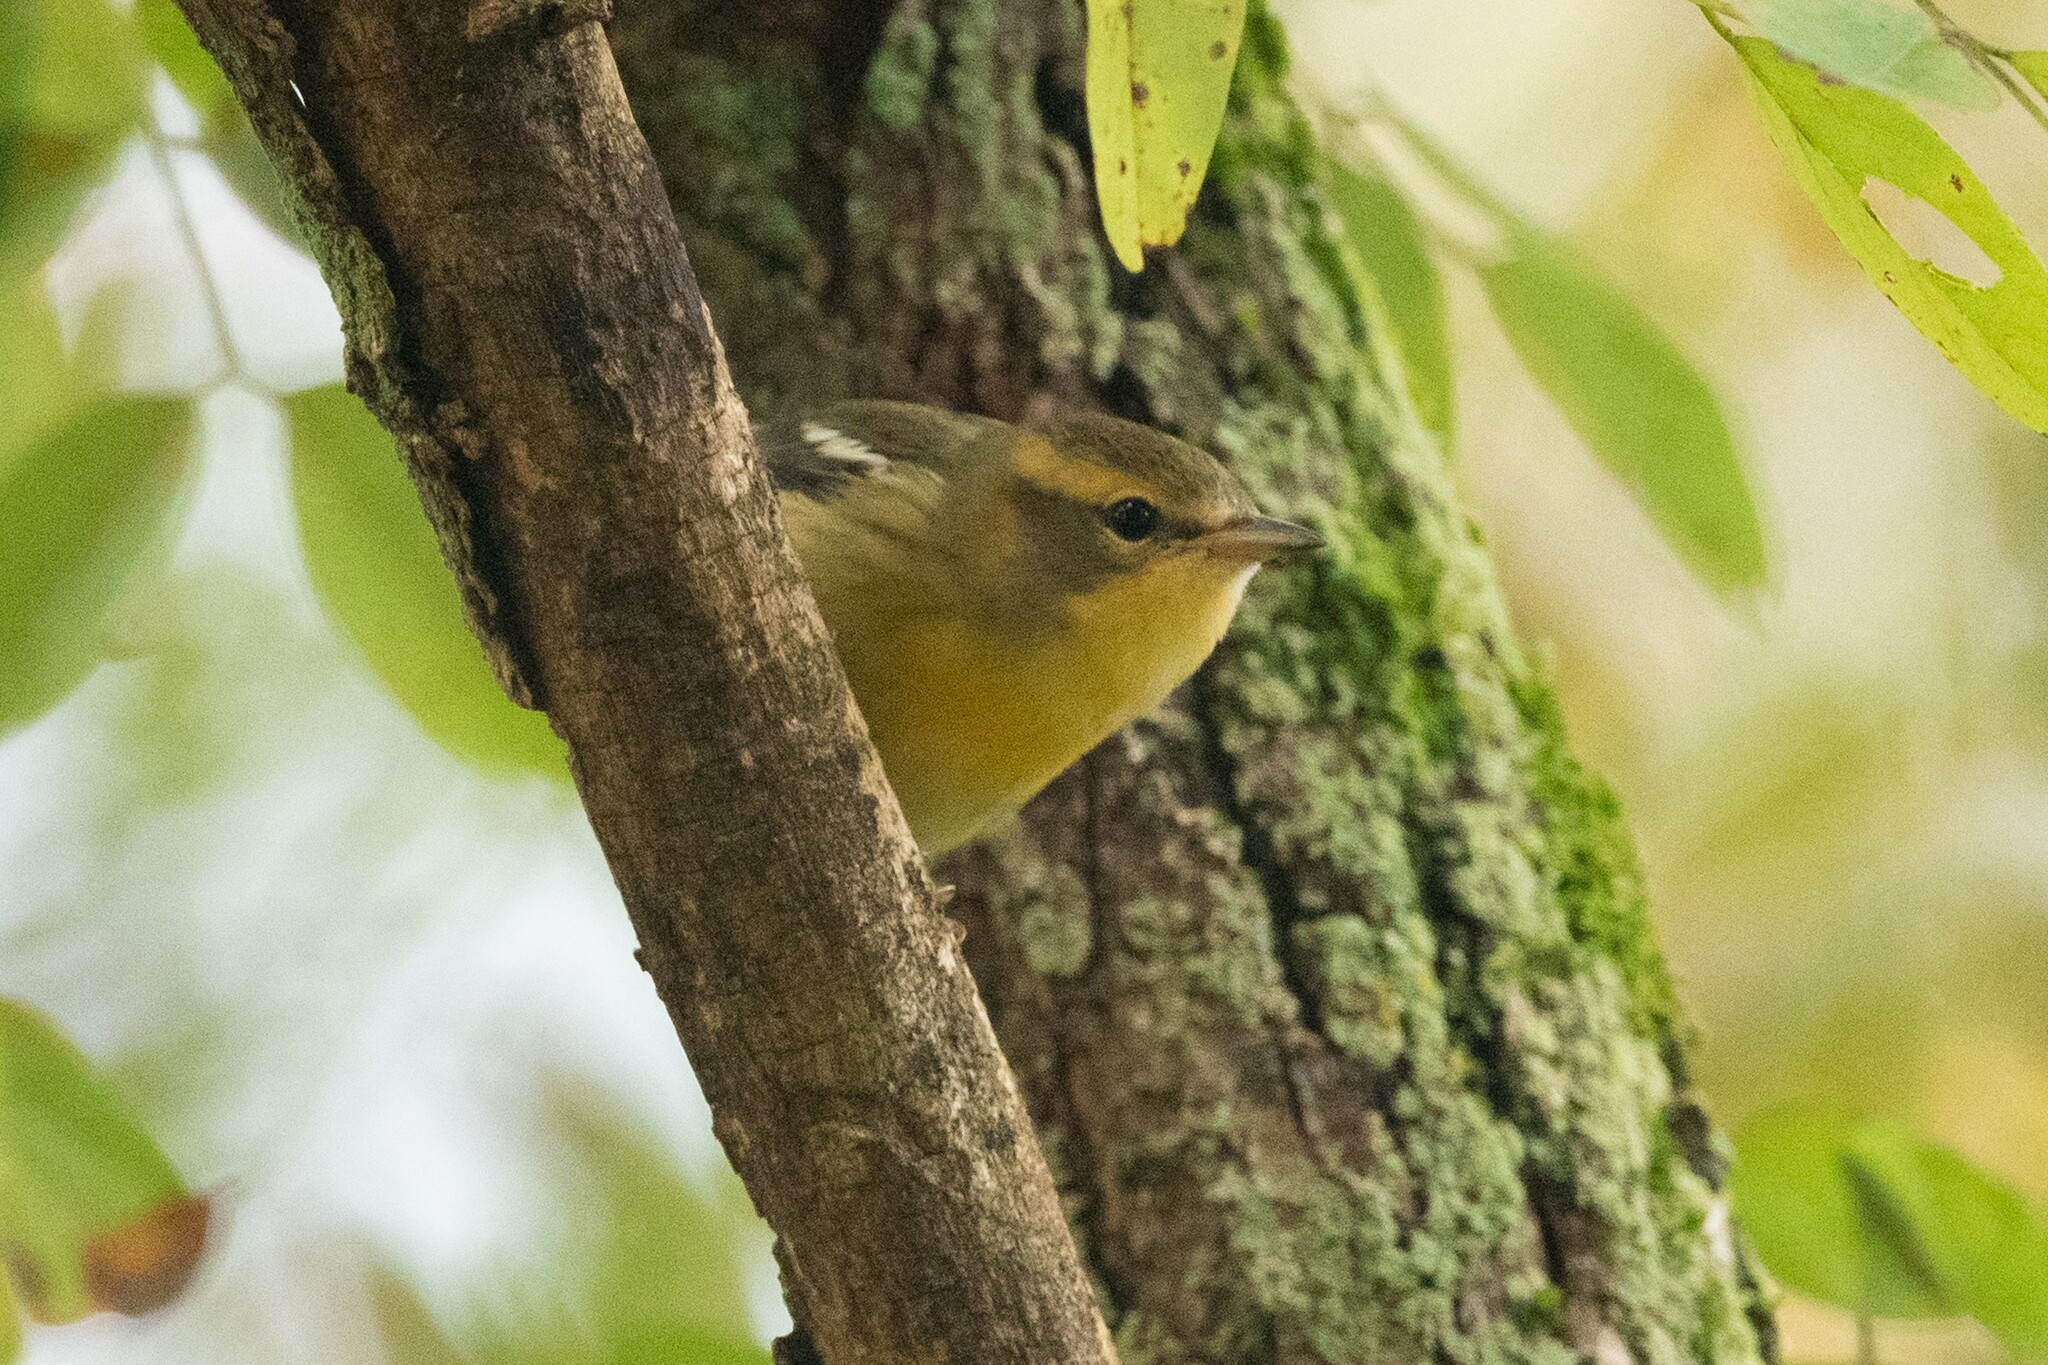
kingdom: Animalia
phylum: Chordata
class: Aves
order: Passeriformes
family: Parulidae
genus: Setophaga
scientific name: Setophaga fusca
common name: Blackburnian warbler
